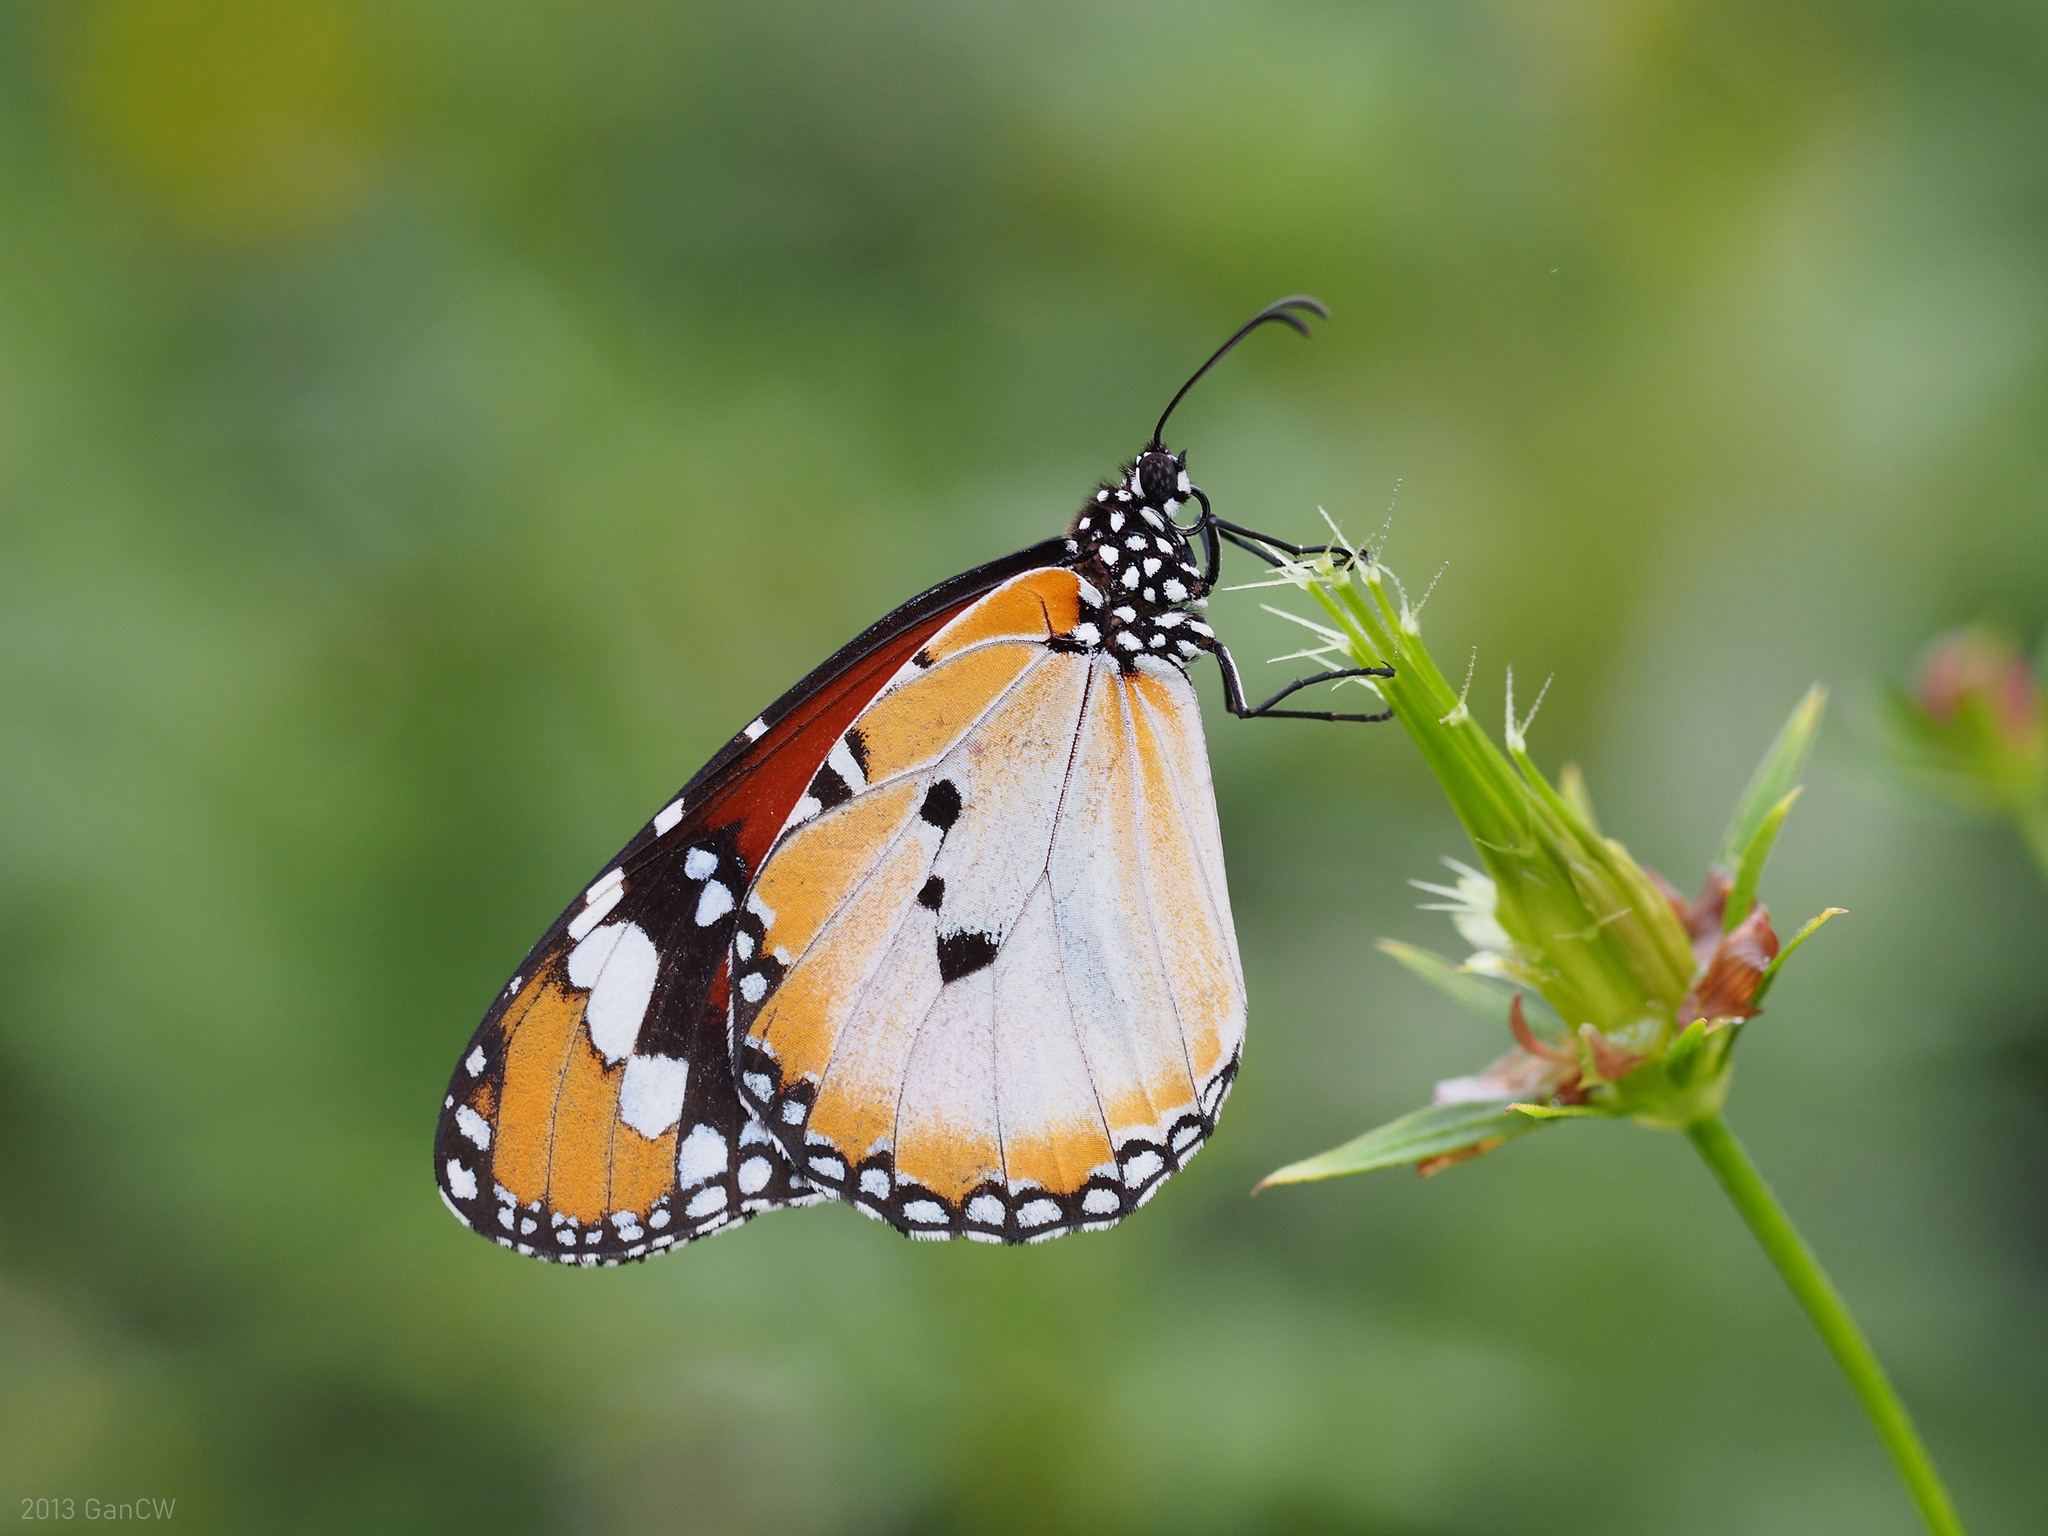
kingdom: Animalia
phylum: Arthropoda
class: Insecta
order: Lepidoptera
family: Nymphalidae
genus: Danaus
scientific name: Danaus chrysippus
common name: Plain tiger
